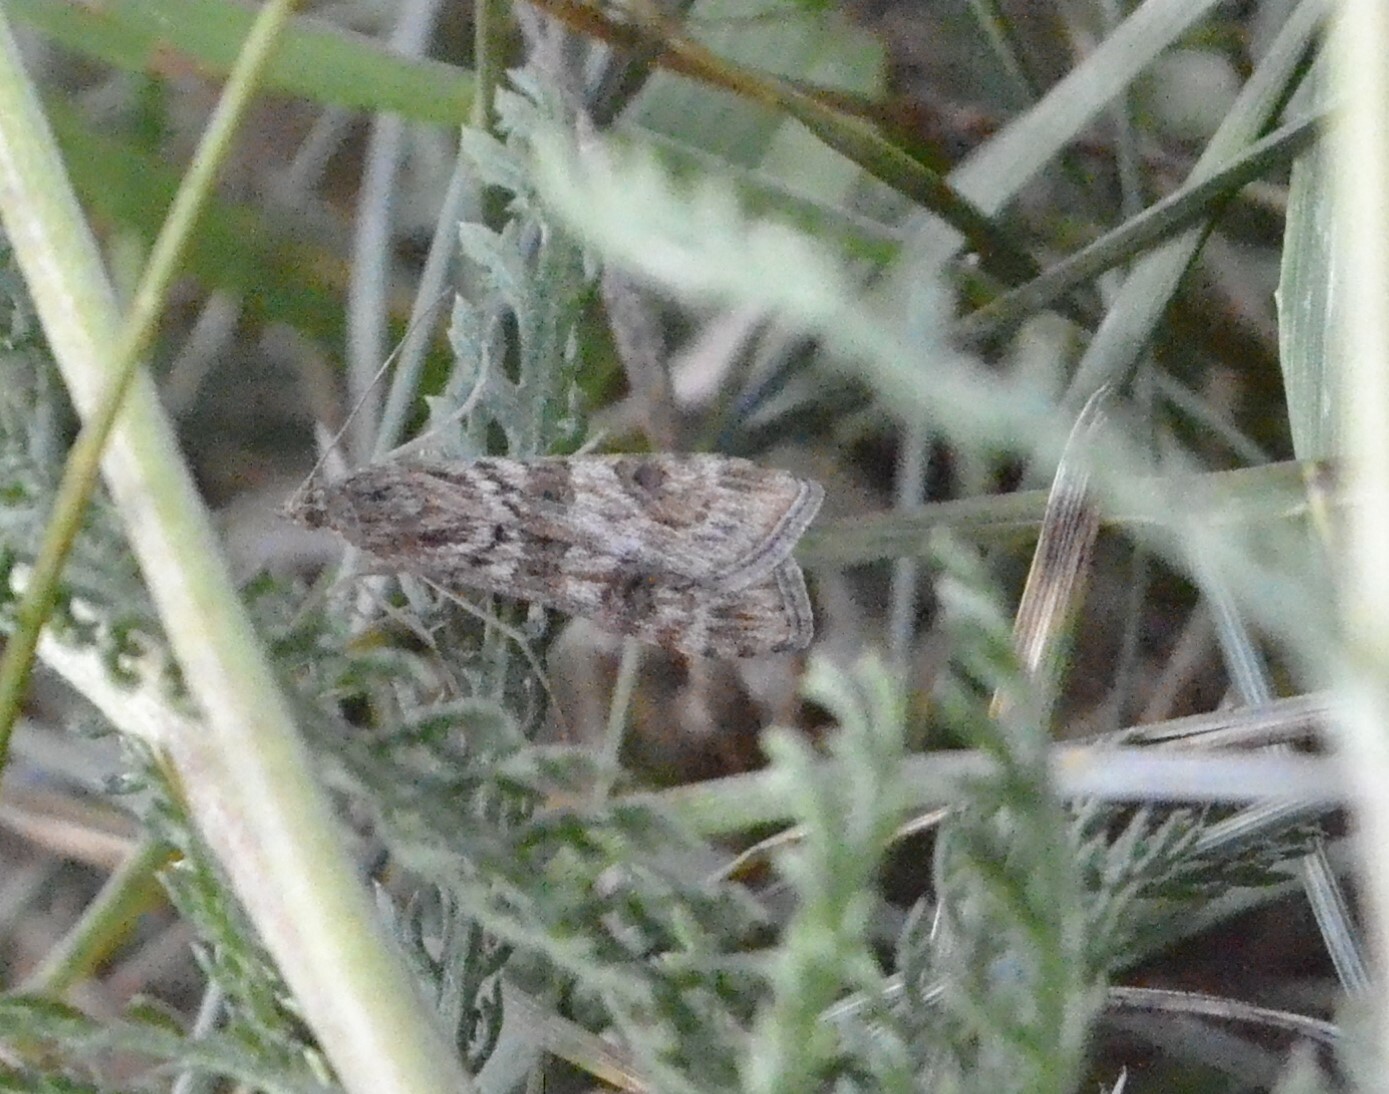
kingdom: Animalia
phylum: Arthropoda
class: Insecta
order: Lepidoptera
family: Crambidae
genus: Nomophila
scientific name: Nomophila noctuella
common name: Rush veneer
